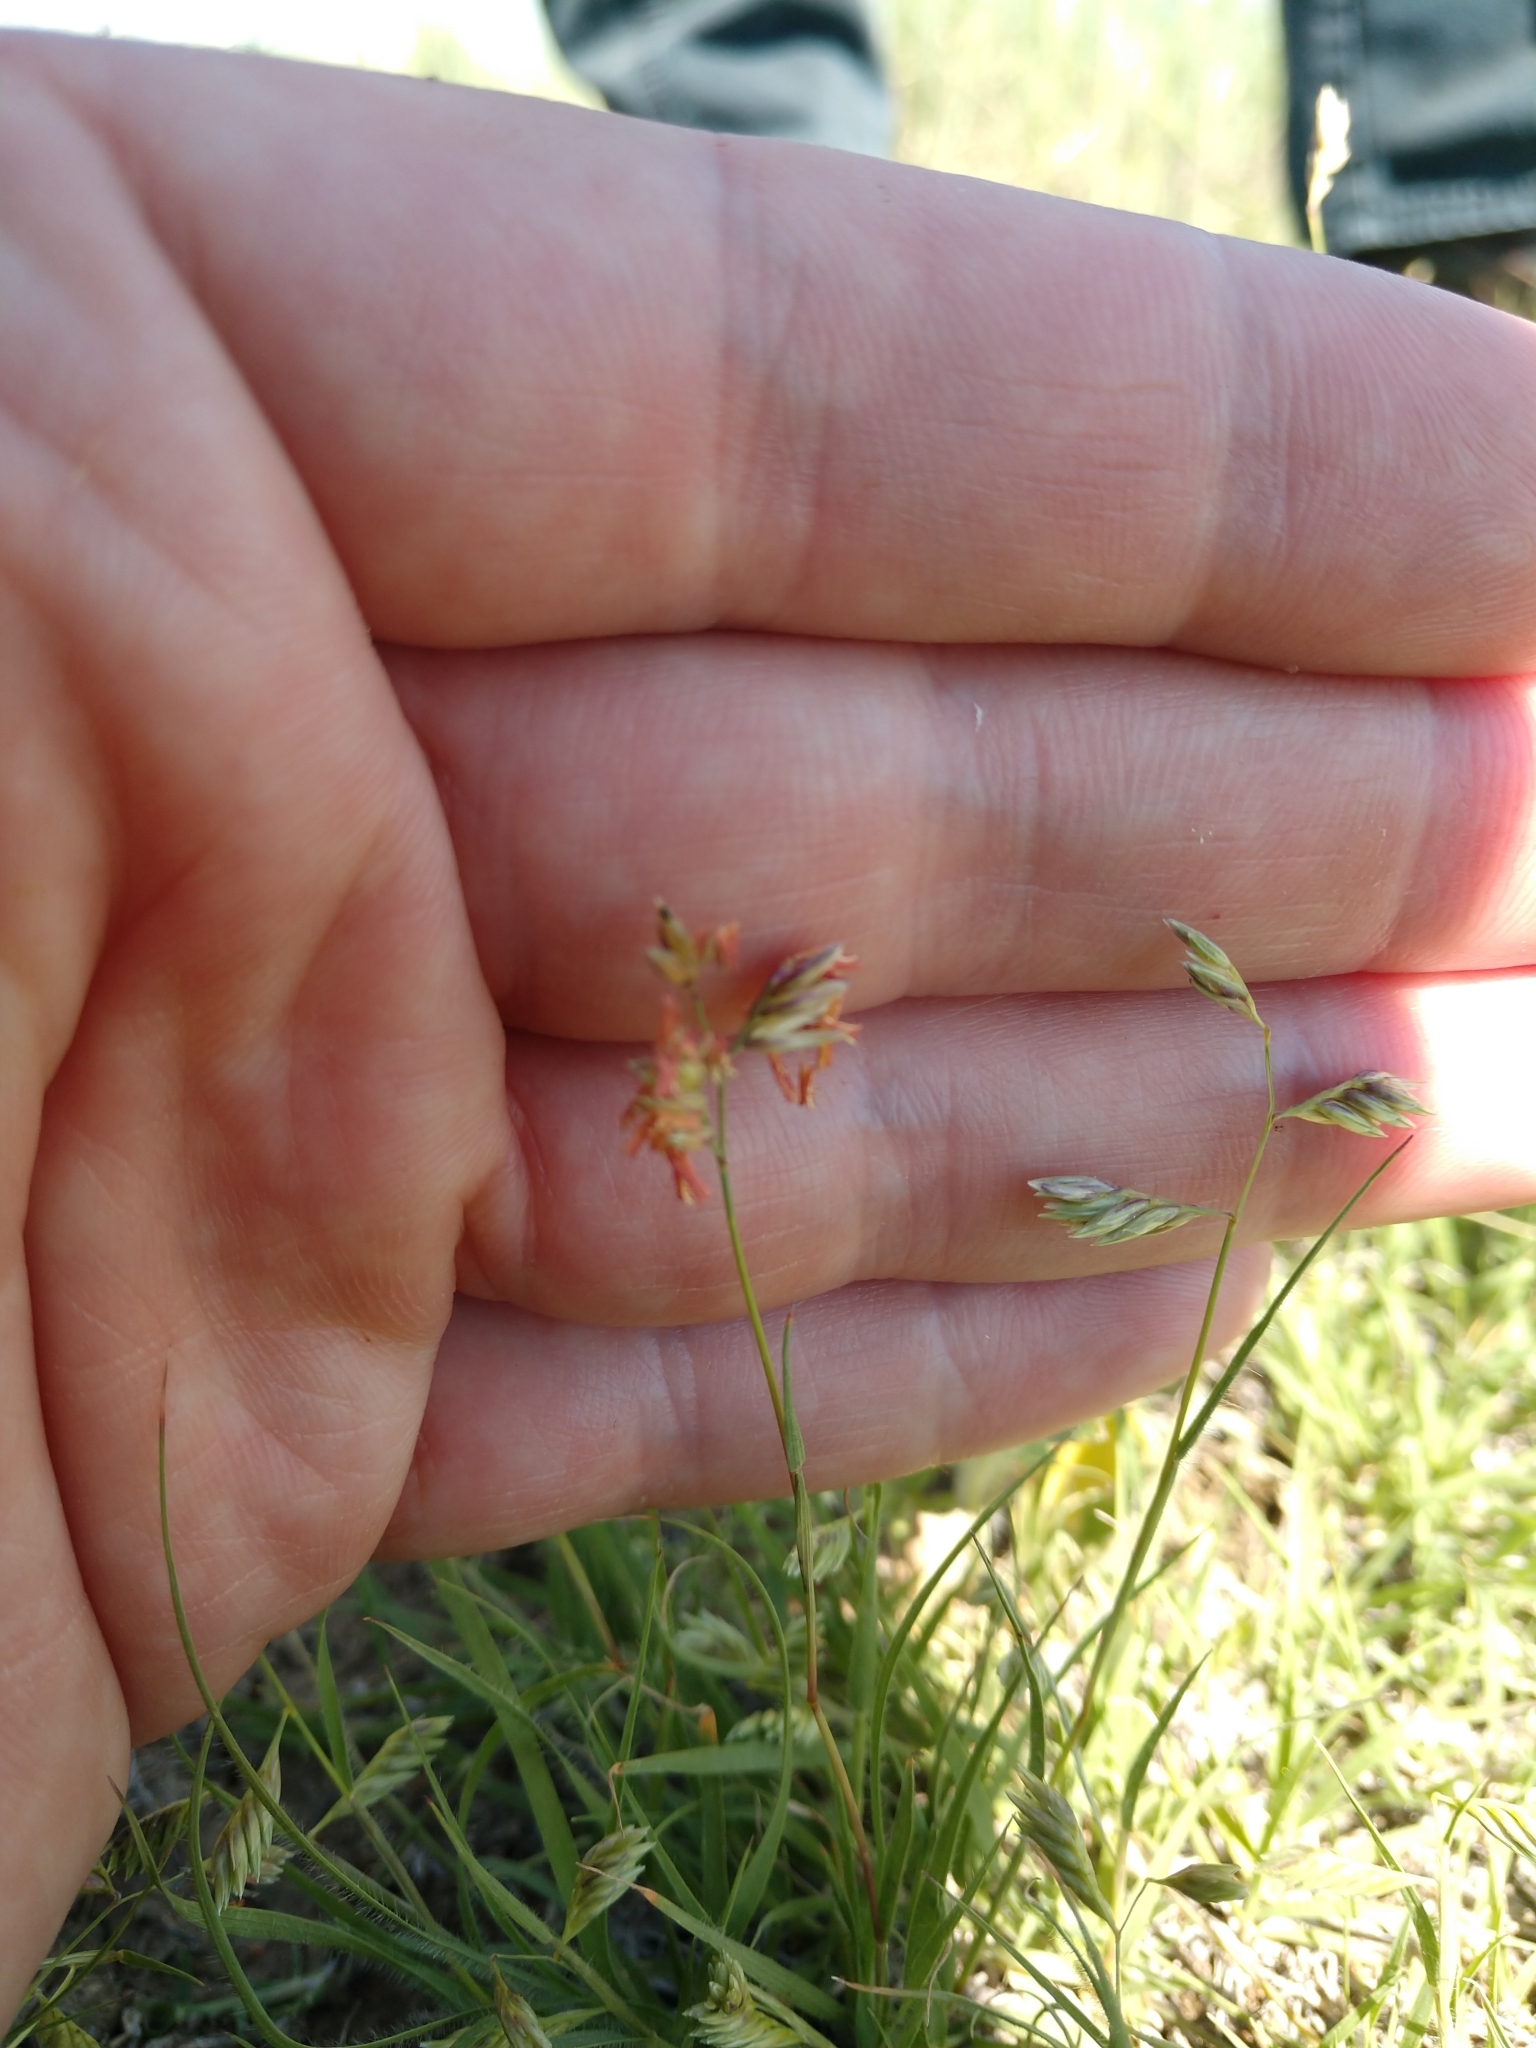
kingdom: Plantae
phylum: Tracheophyta
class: Liliopsida
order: Poales
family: Poaceae
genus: Bouteloua
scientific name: Bouteloua dactyloides
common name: Buffalo grass
